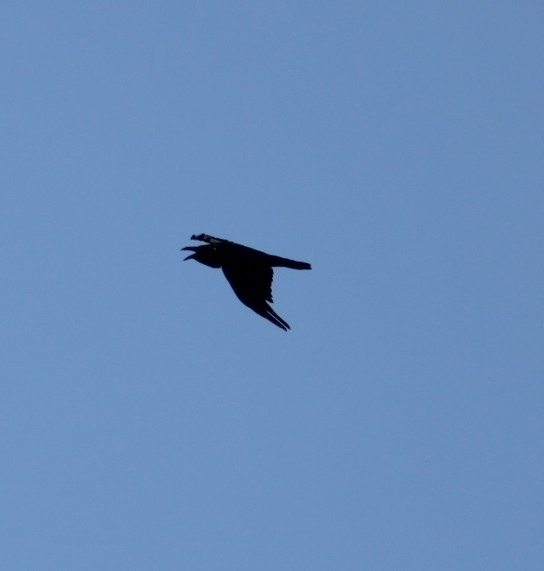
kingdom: Animalia
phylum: Chordata
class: Aves
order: Passeriformes
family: Corvidae
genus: Corvus
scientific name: Corvus corax
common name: Common raven
